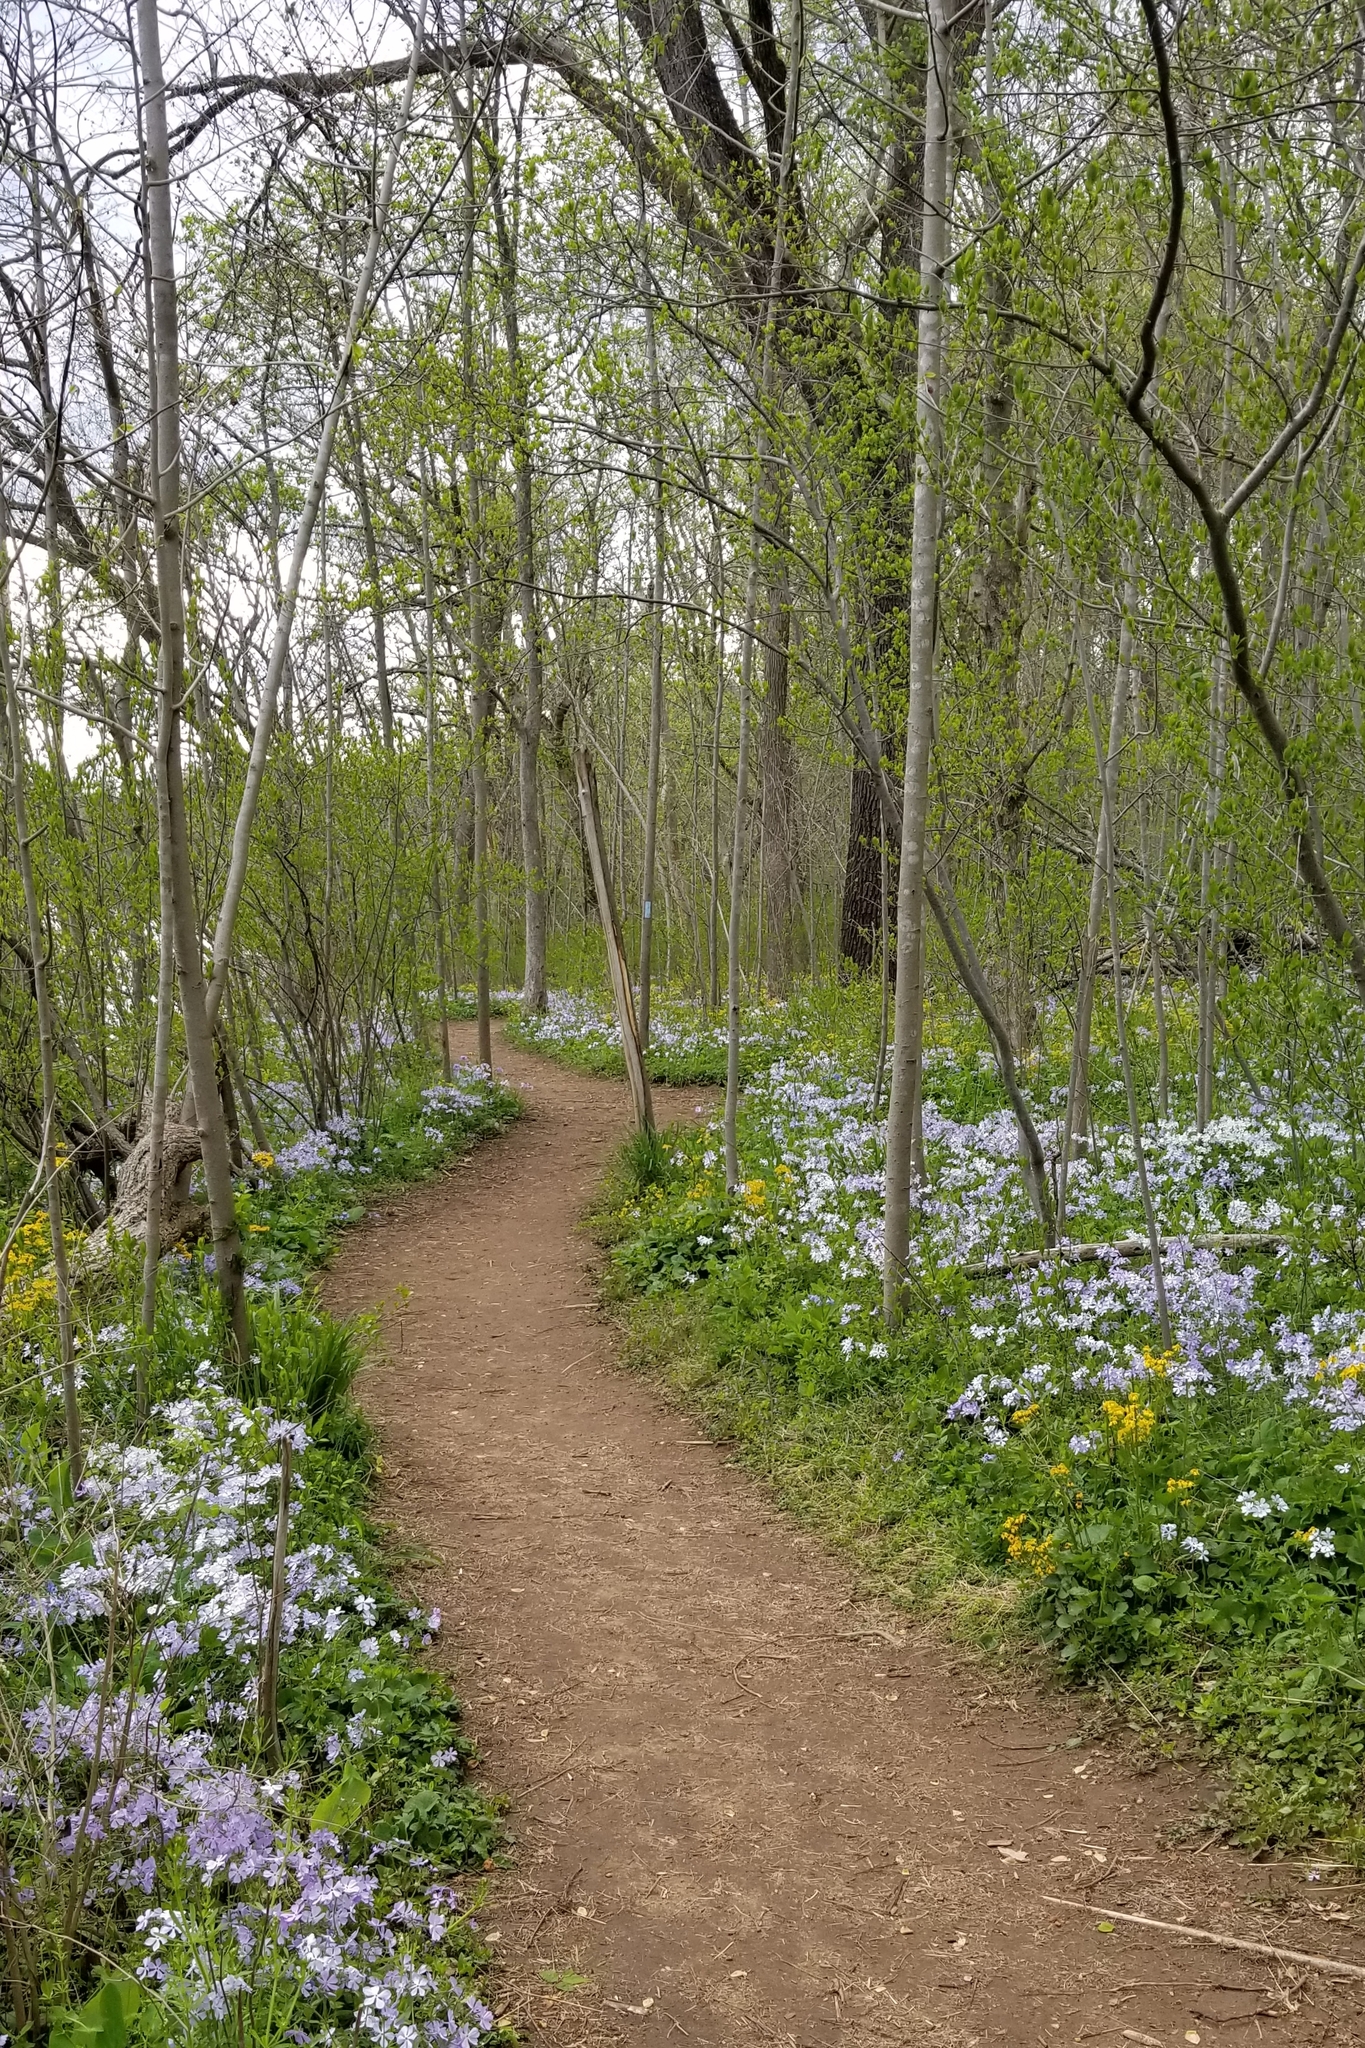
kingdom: Plantae
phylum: Tracheophyta
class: Magnoliopsida
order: Ericales
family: Polemoniaceae
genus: Phlox
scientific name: Phlox divaricata
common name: Blue phlox
